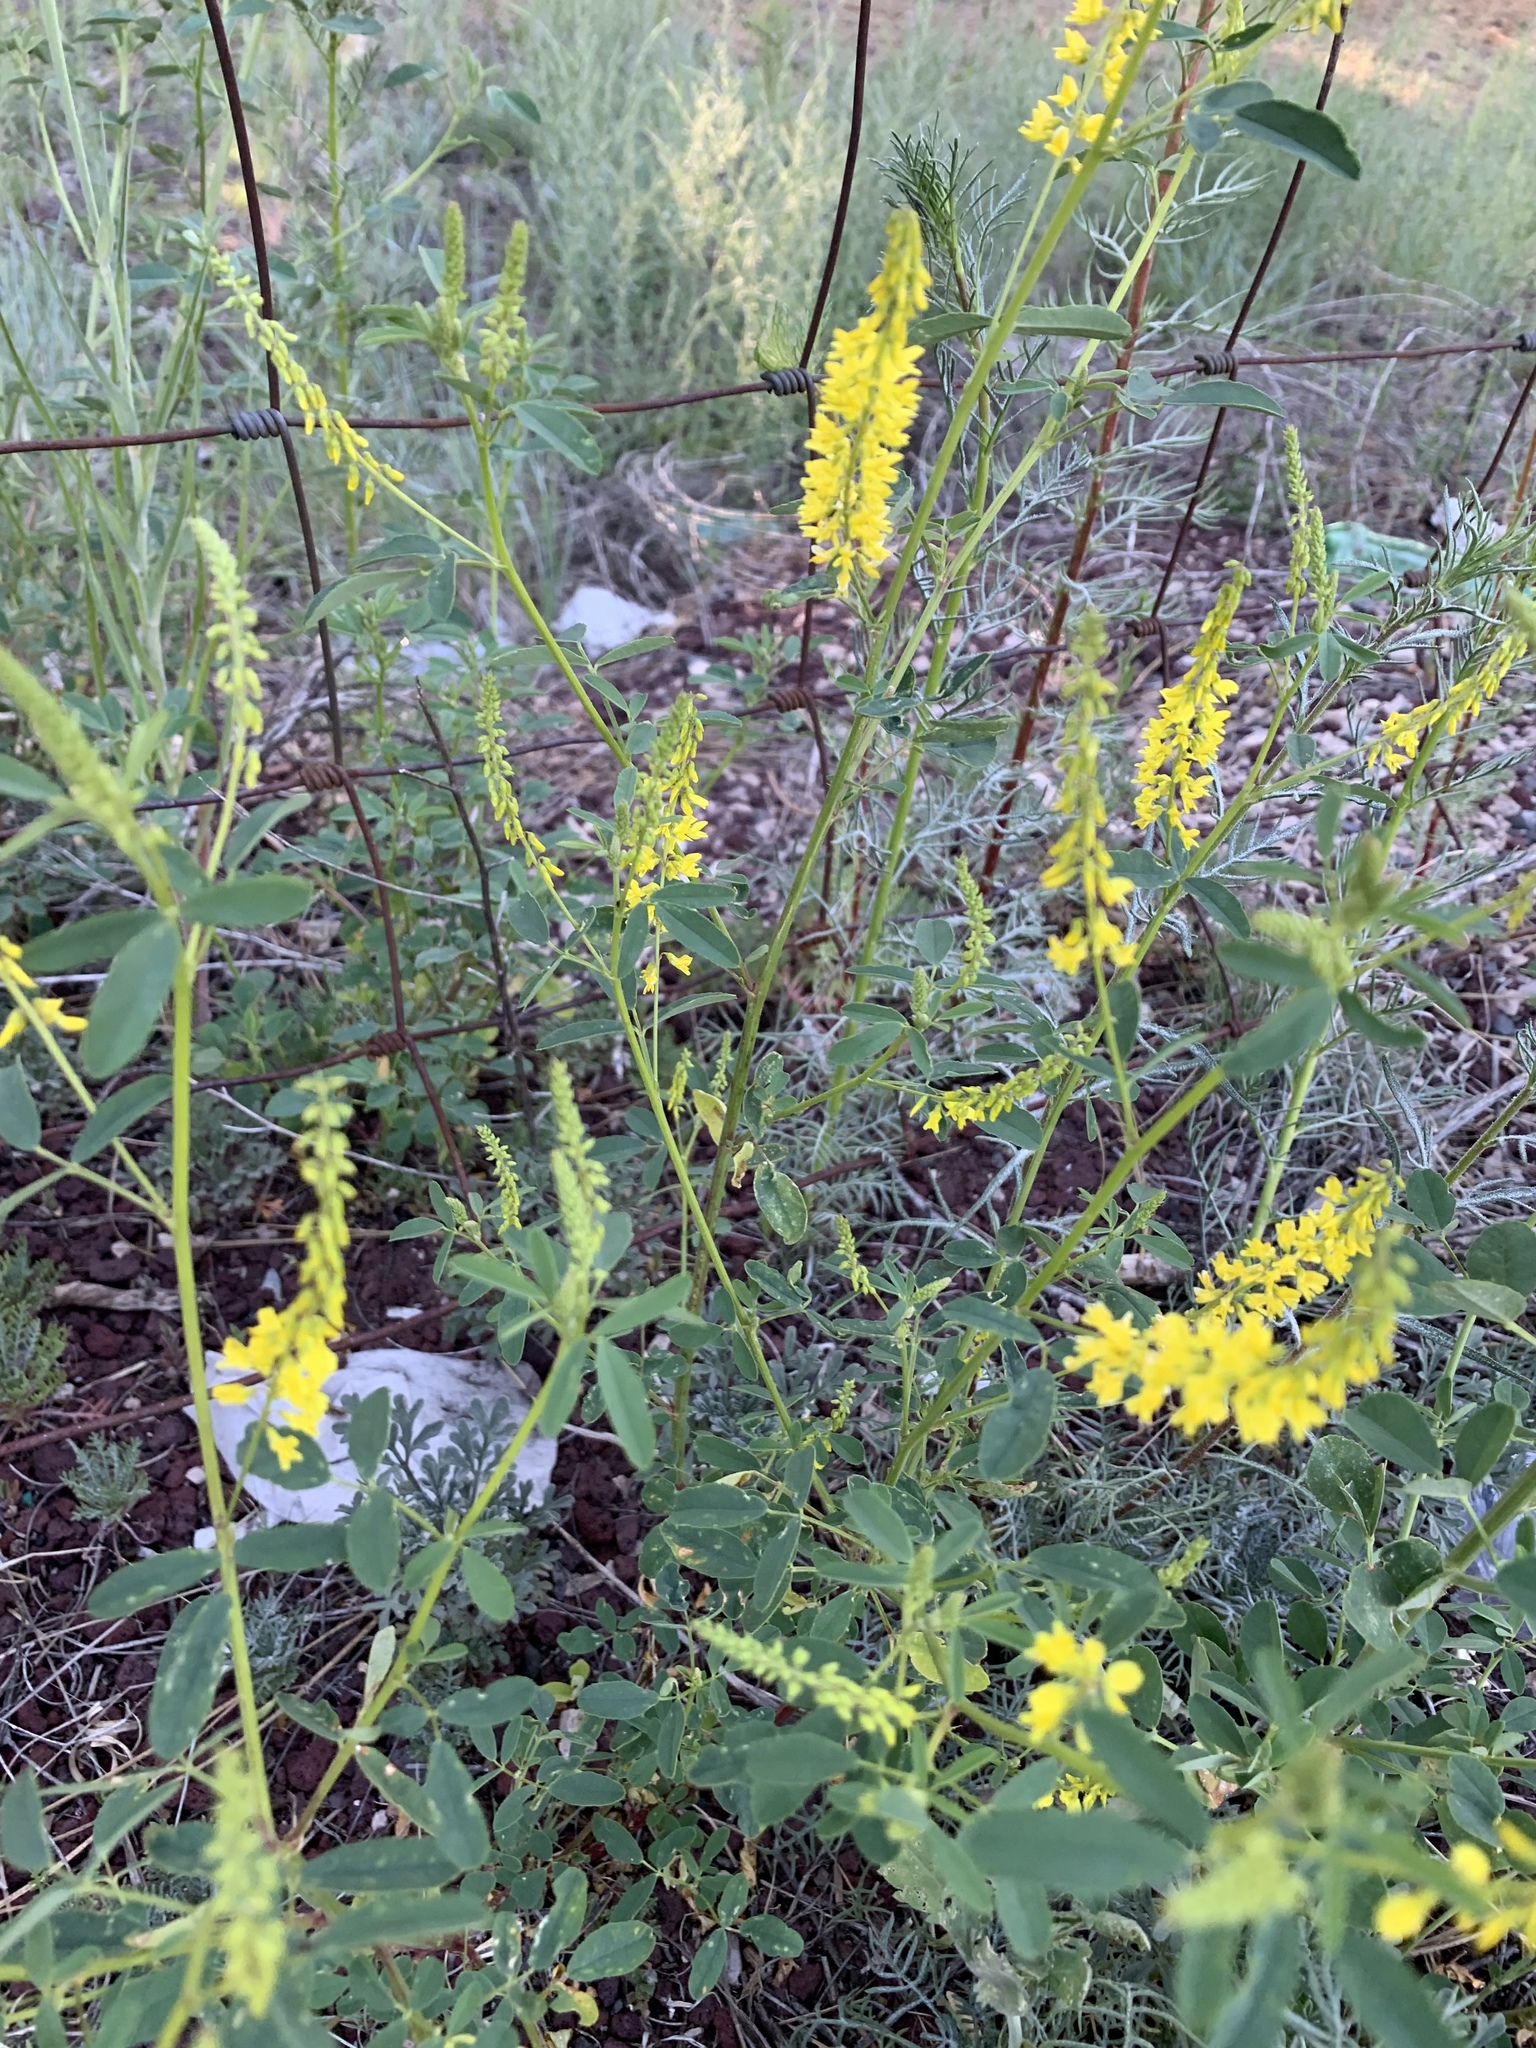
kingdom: Plantae
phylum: Tracheophyta
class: Magnoliopsida
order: Fabales
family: Fabaceae
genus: Melilotus
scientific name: Melilotus officinalis
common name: Sweetclover
